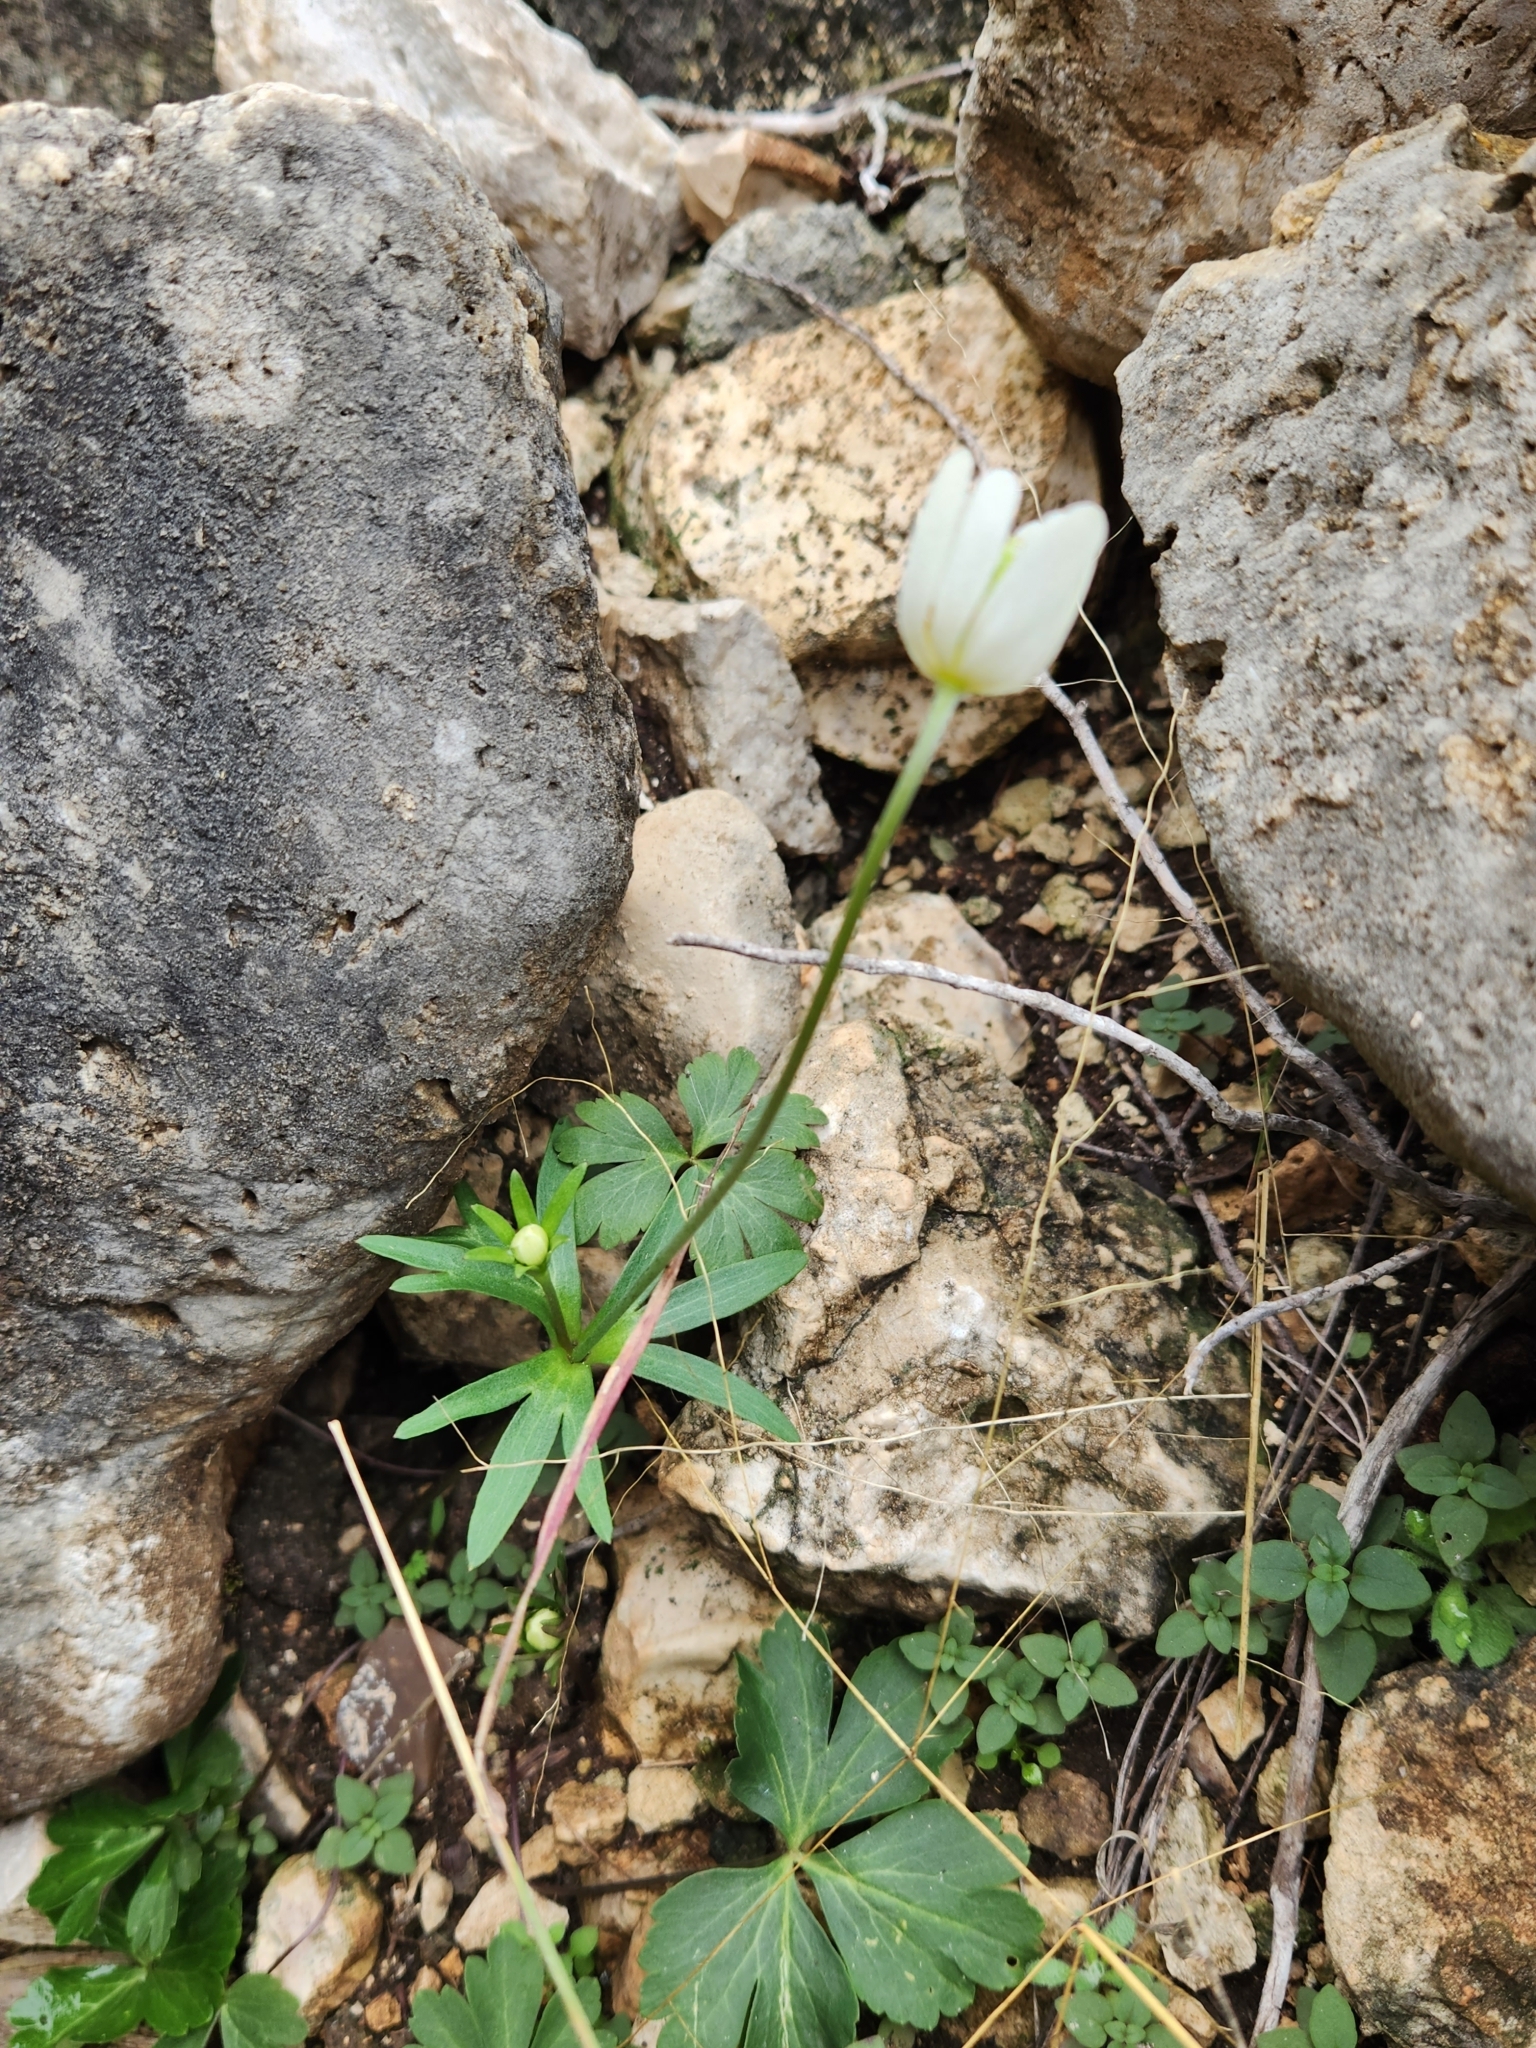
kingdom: Plantae
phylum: Tracheophyta
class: Magnoliopsida
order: Ranunculales
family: Ranunculaceae
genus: Anemone
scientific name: Anemone edwardsiana
